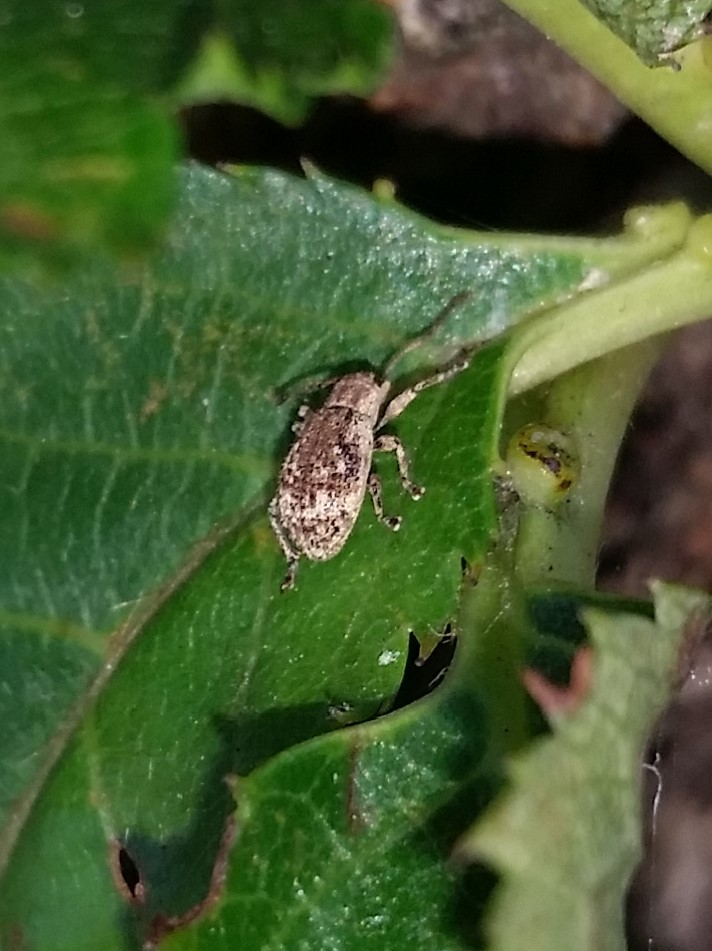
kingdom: Animalia
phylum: Arthropoda
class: Insecta
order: Coleoptera
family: Curculionidae
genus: Pseudoedophrys
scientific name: Pseudoedophrys hilleri
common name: Weevil
